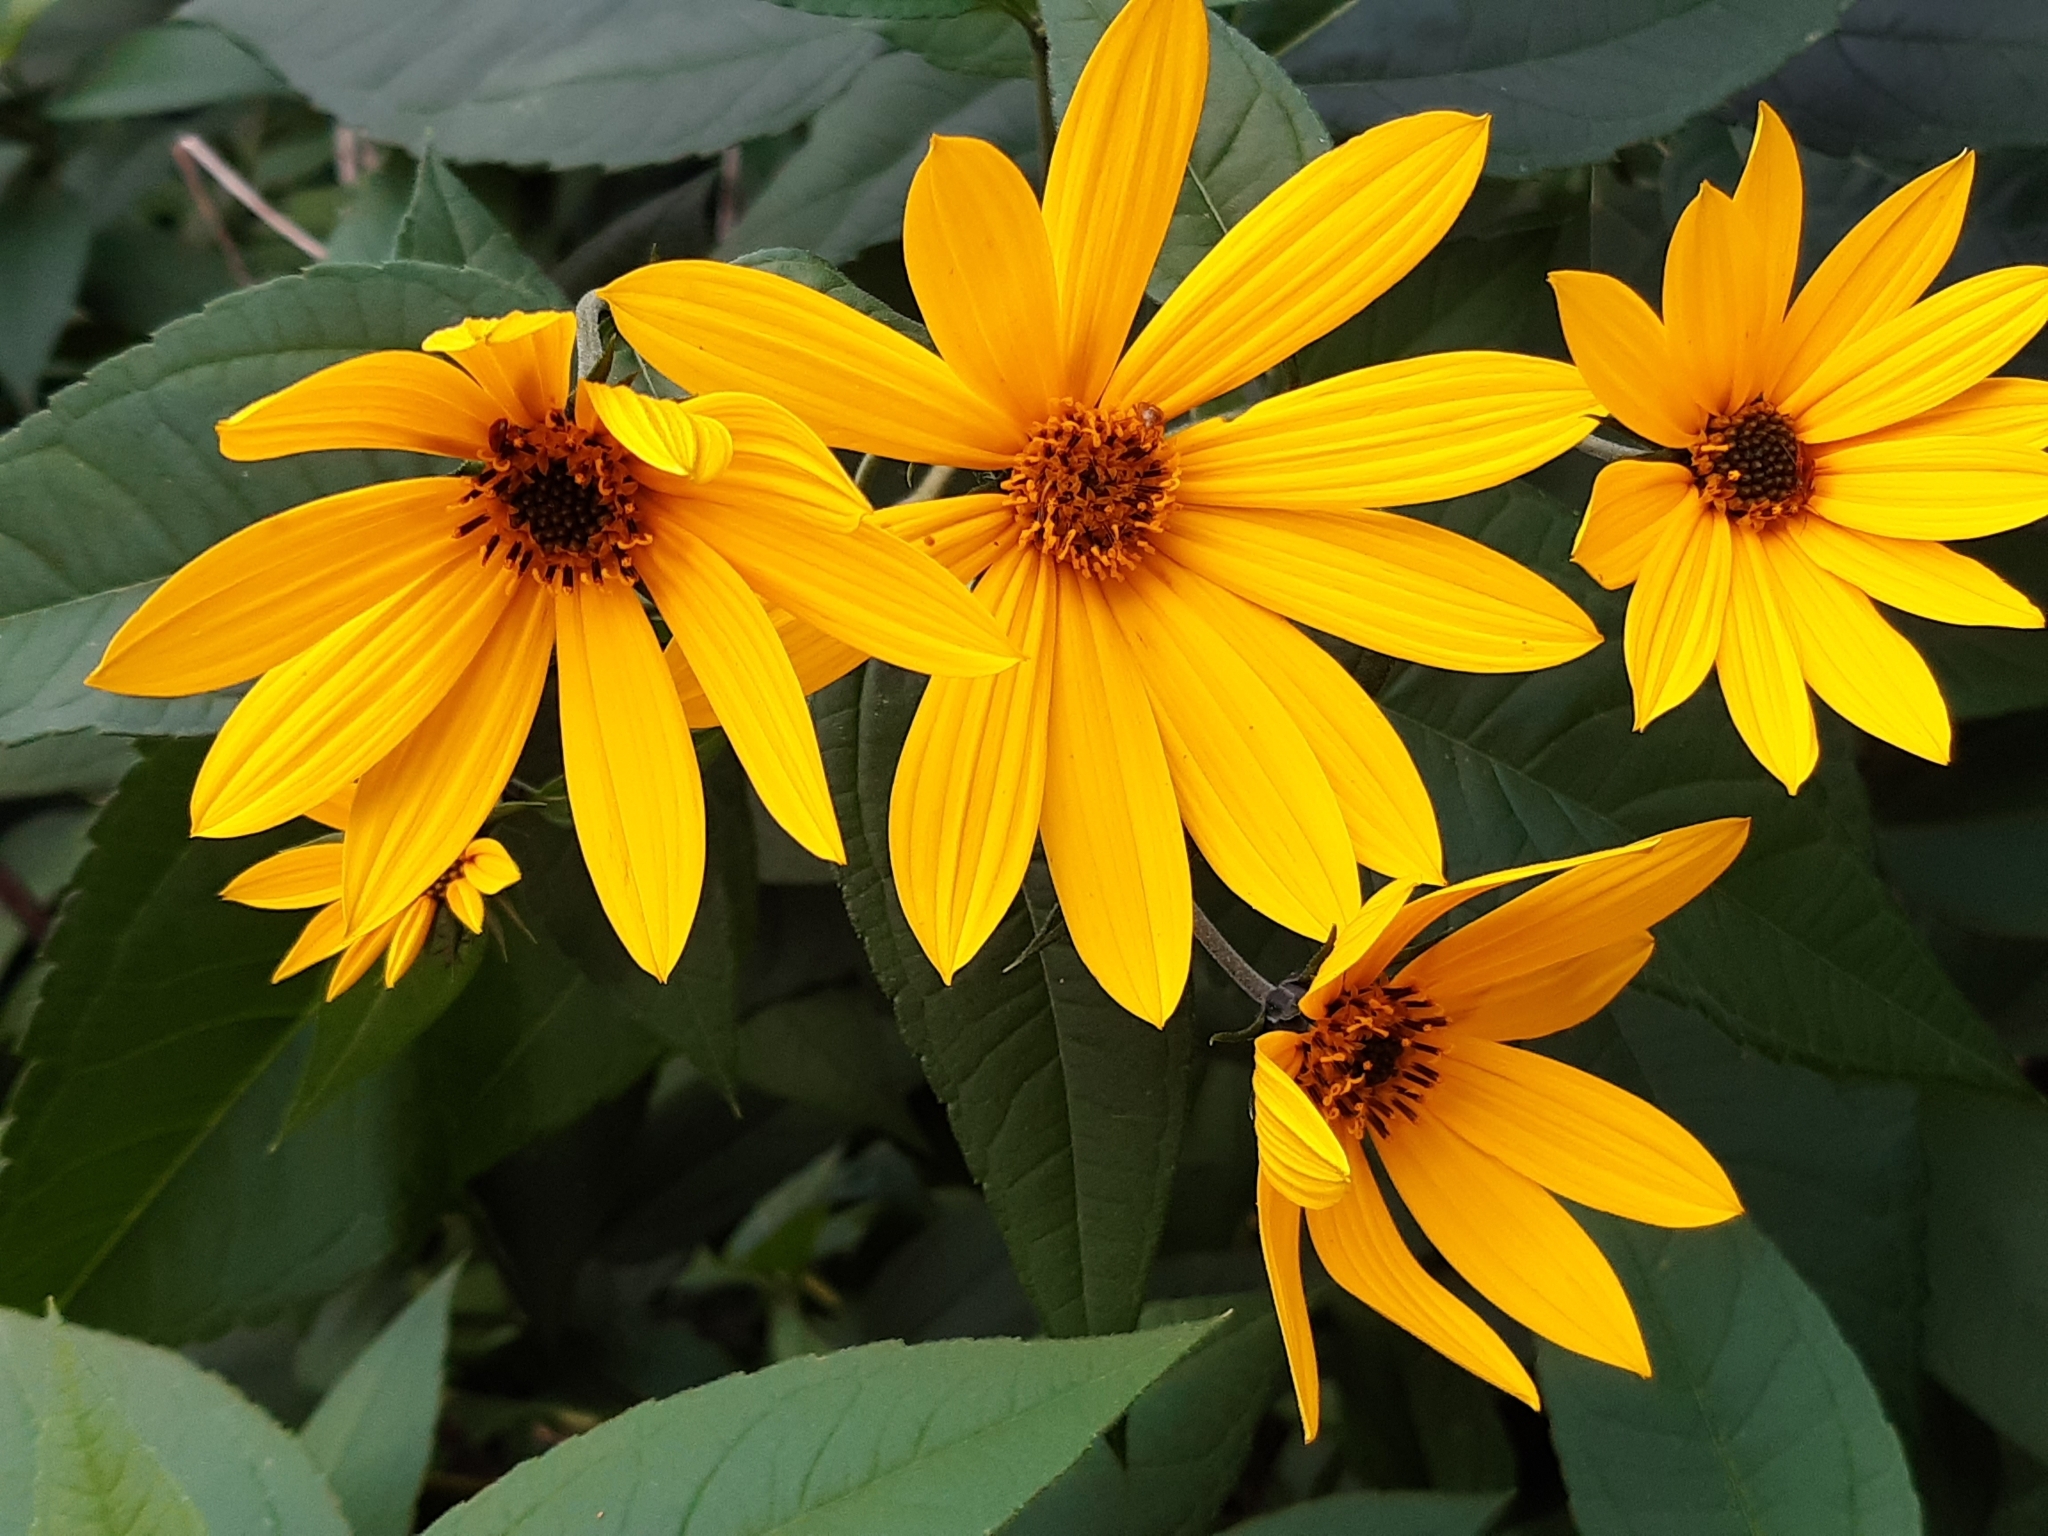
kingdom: Plantae
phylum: Tracheophyta
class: Magnoliopsida
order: Asterales
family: Asteraceae
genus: Helianthus
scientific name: Helianthus tuberosus
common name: Jerusalem artichoke
